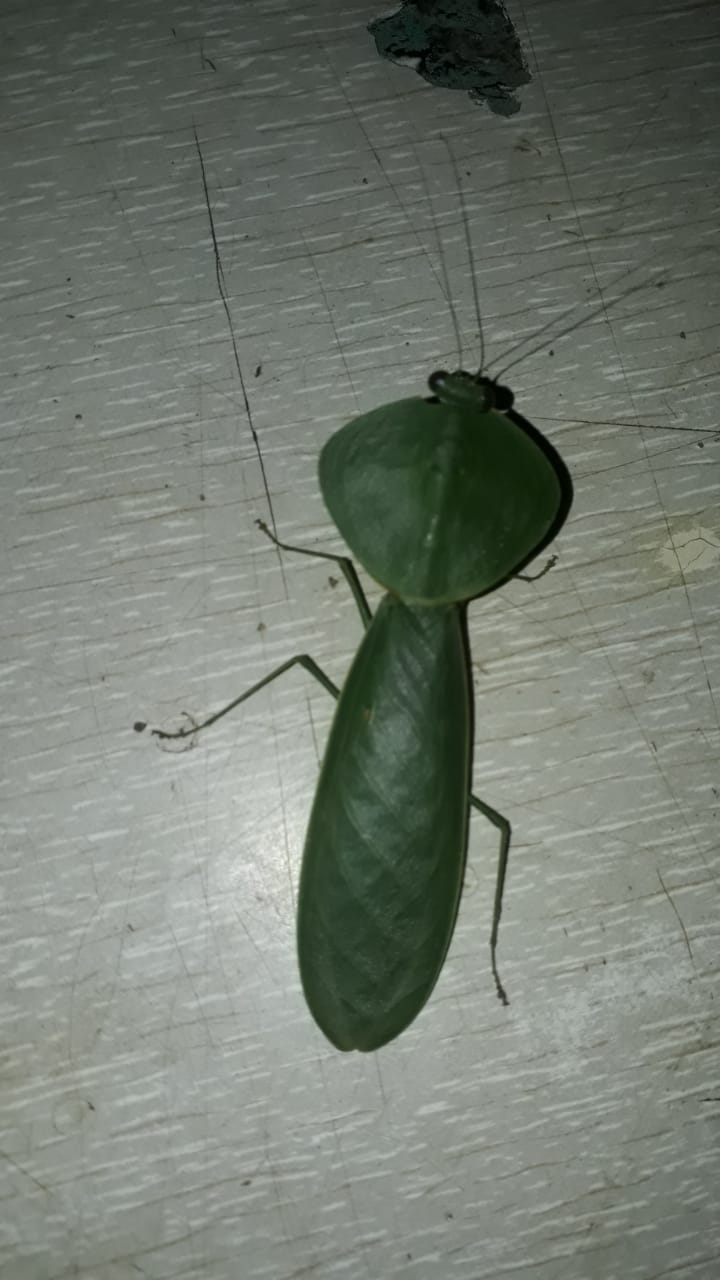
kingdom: Animalia
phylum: Arthropoda
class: Insecta
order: Mantodea
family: Mantidae
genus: Choeradodis
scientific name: Choeradodis rhombicollis
